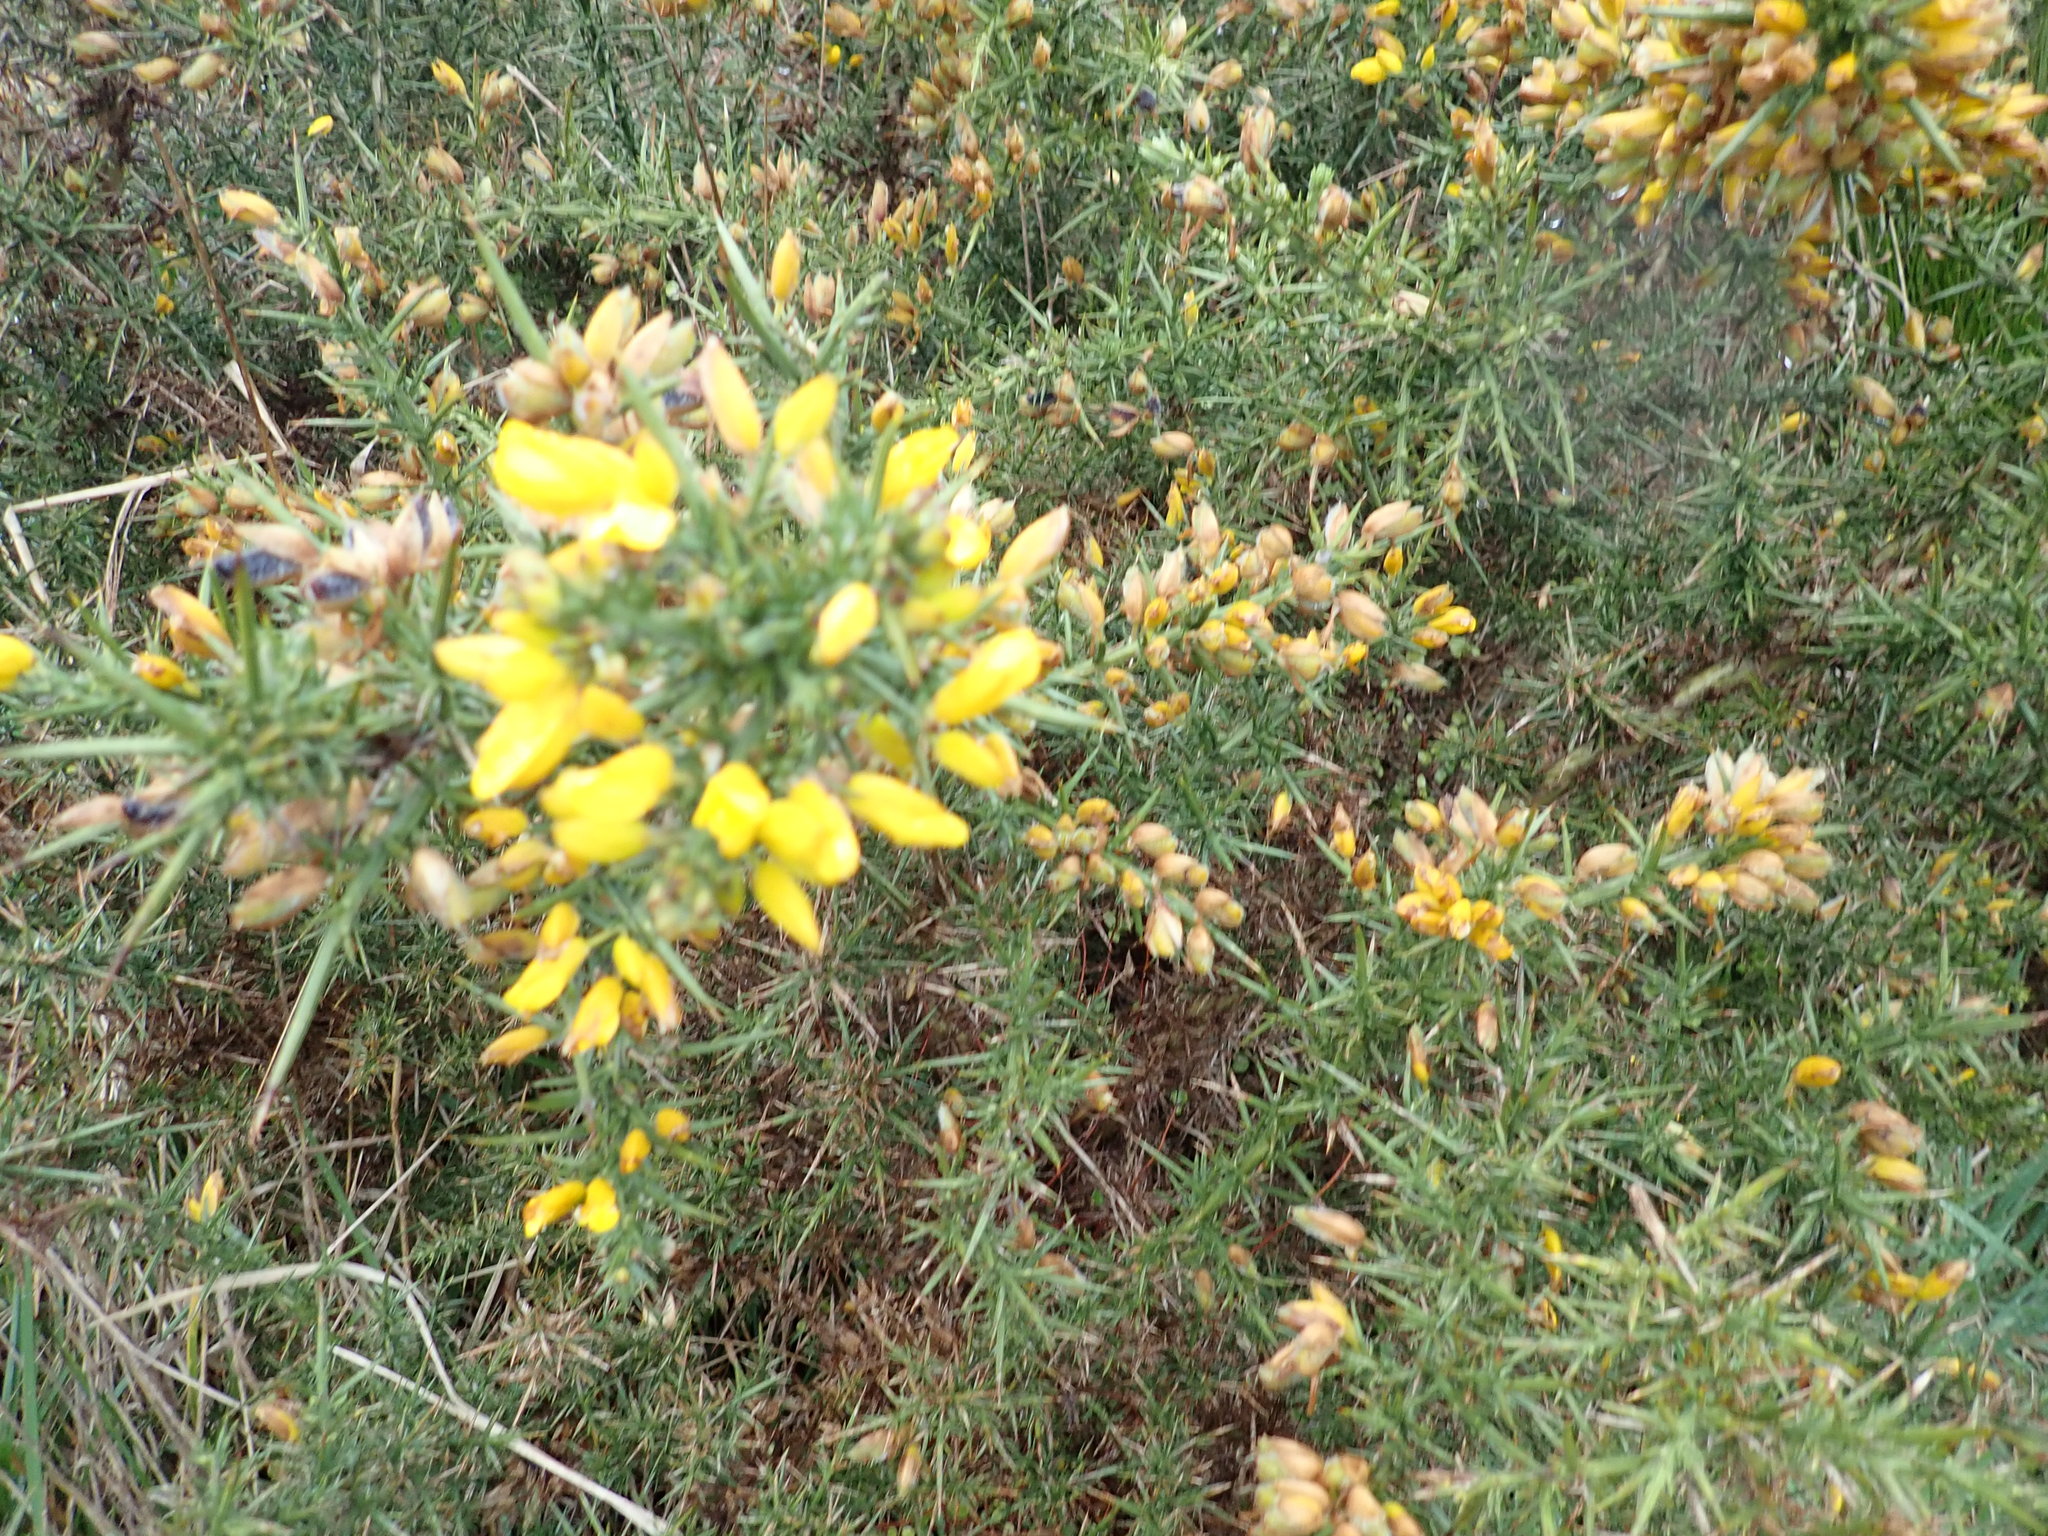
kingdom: Plantae
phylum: Tracheophyta
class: Magnoliopsida
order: Fabales
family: Fabaceae
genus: Ulex
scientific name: Ulex europaeus
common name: Common gorse
